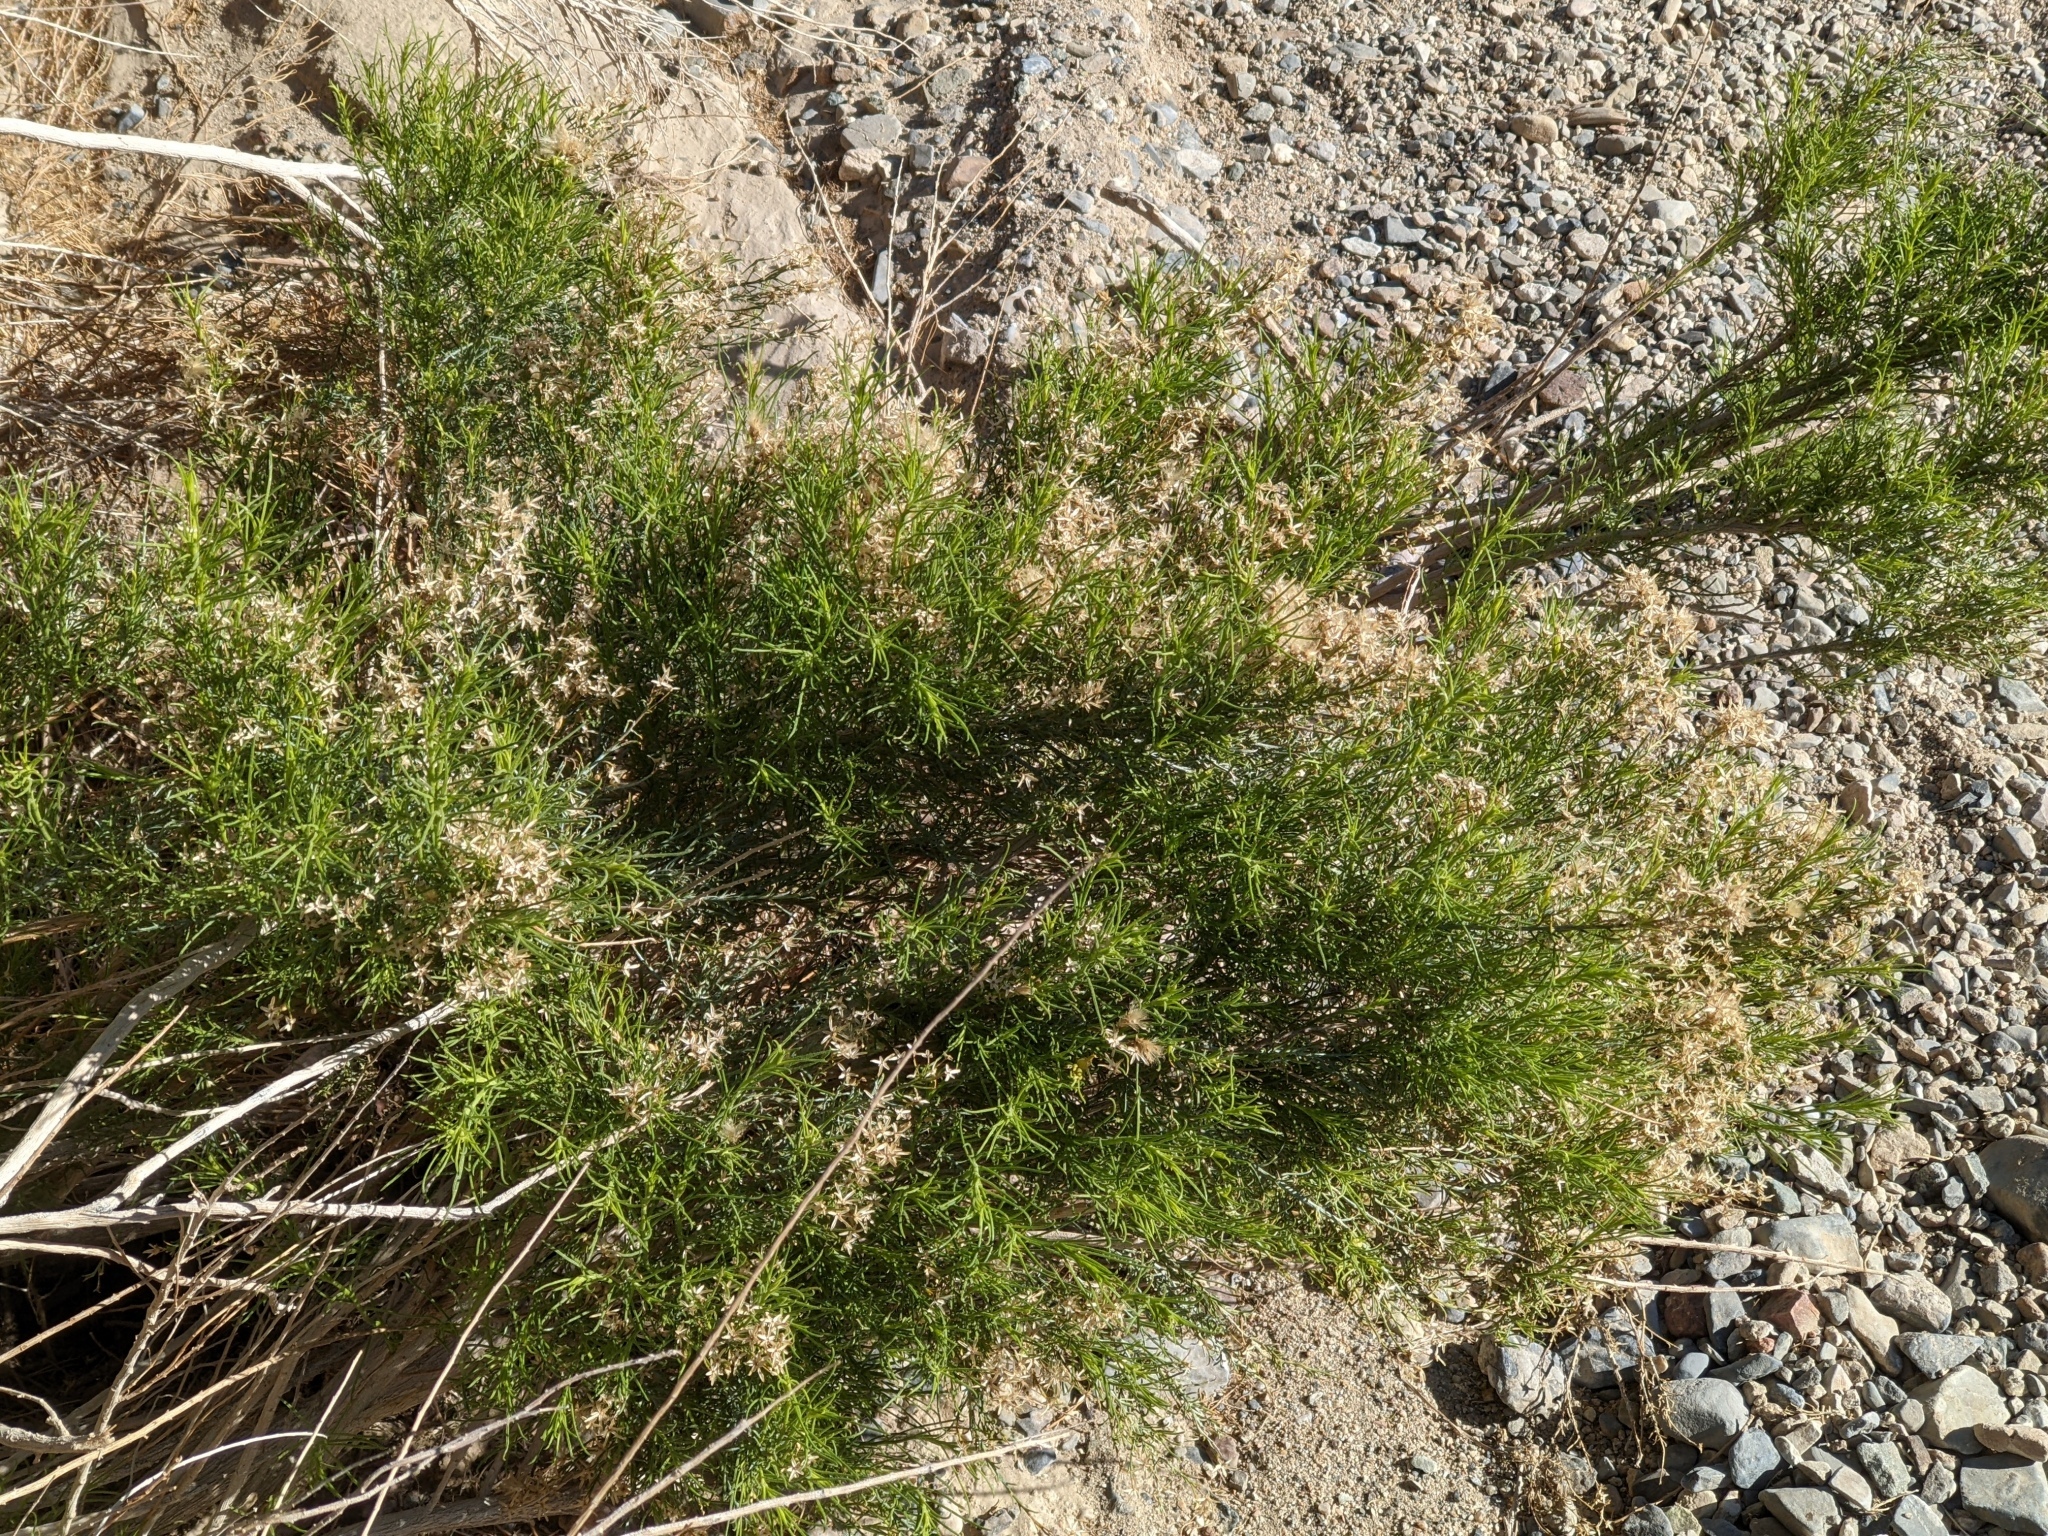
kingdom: Plantae
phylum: Tracheophyta
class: Magnoliopsida
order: Asterales
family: Asteraceae
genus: Ericameria
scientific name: Ericameria paniculata
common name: Punctate rabbitbrush
